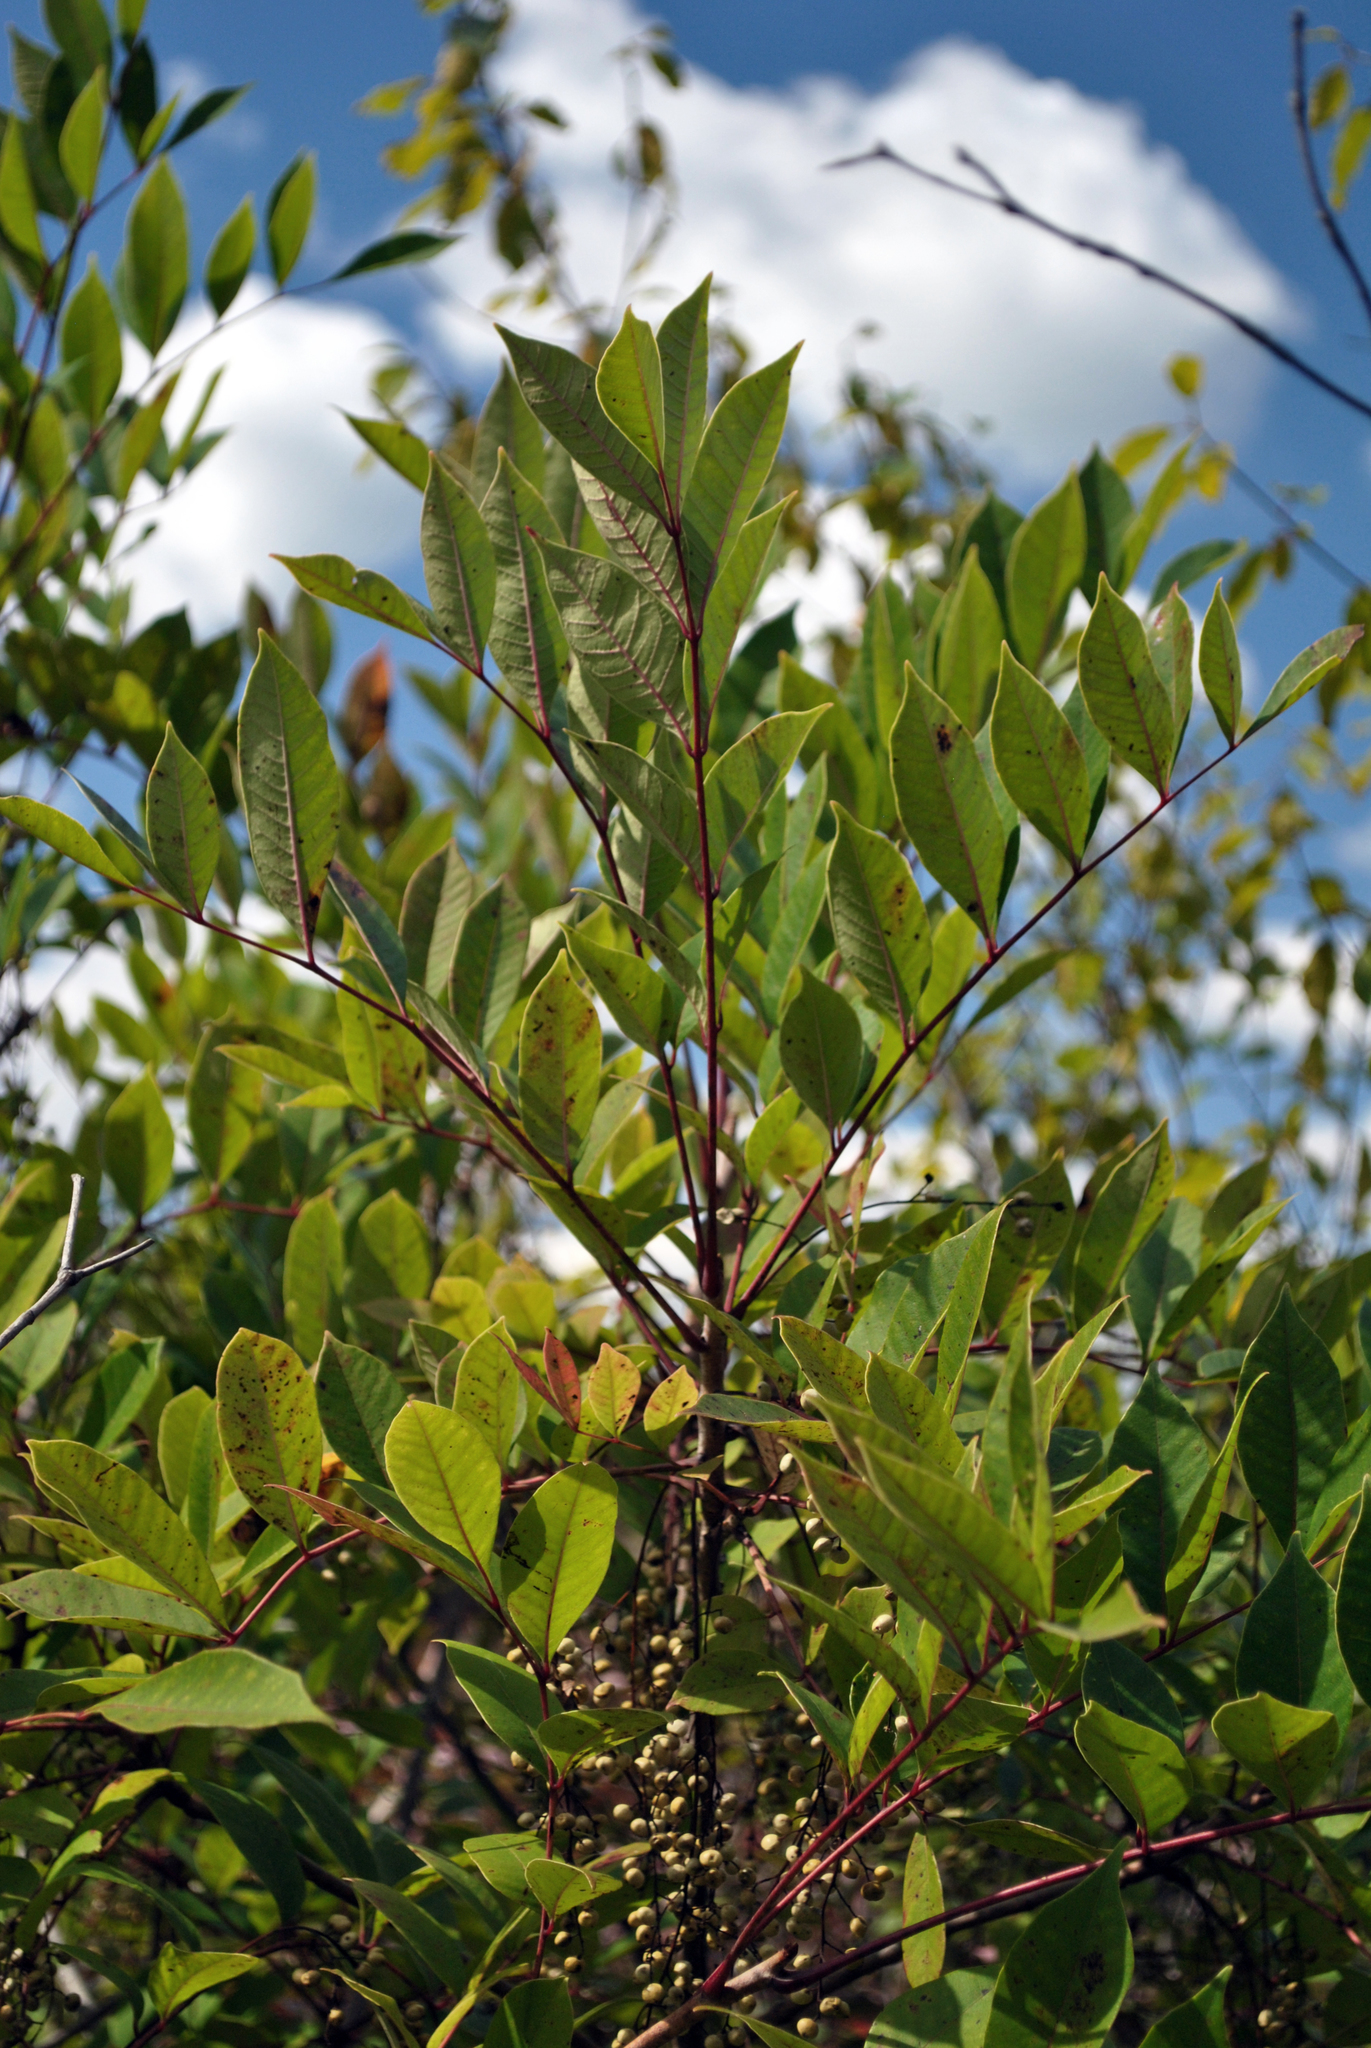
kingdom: Plantae
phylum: Tracheophyta
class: Magnoliopsida
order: Sapindales
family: Anacardiaceae
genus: Toxicodendron
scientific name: Toxicodendron vernix
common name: Poison sumac
